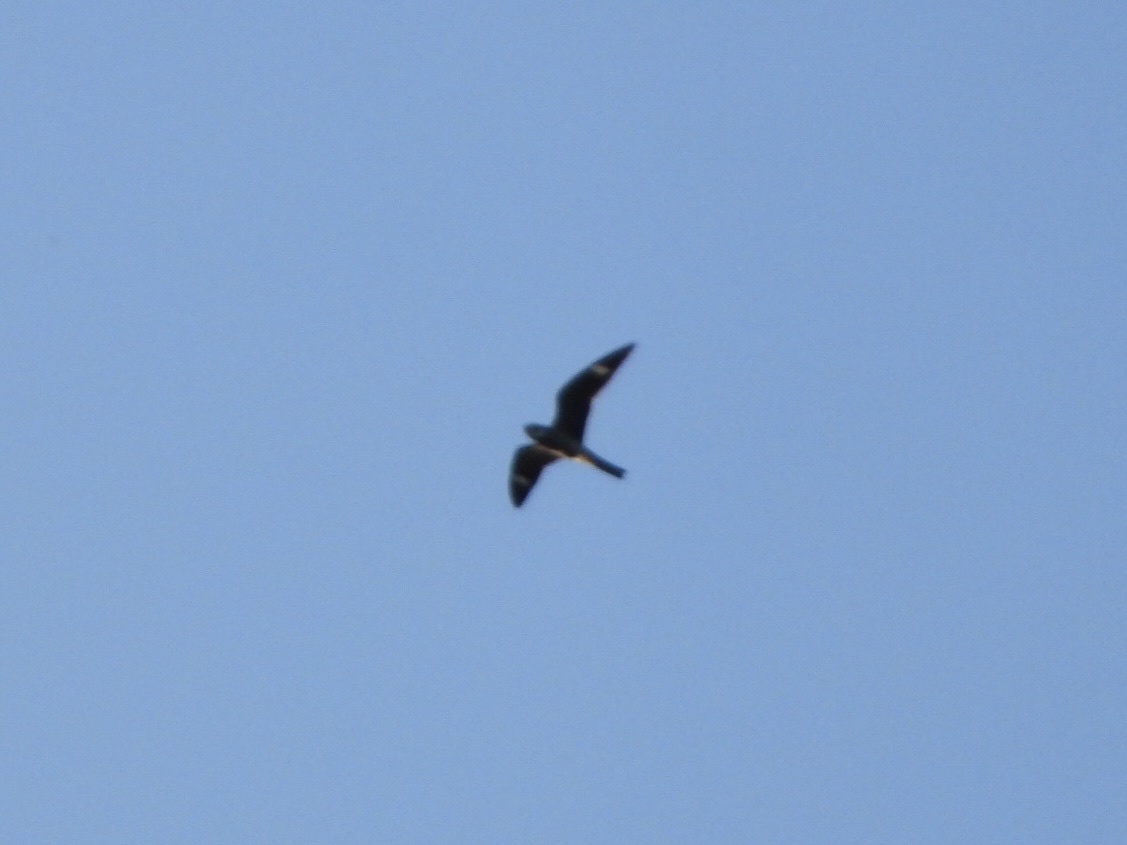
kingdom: Animalia
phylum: Chordata
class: Aves
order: Caprimulgiformes
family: Caprimulgidae
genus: Chordeiles
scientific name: Chordeiles minor
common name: Common nighthawk
